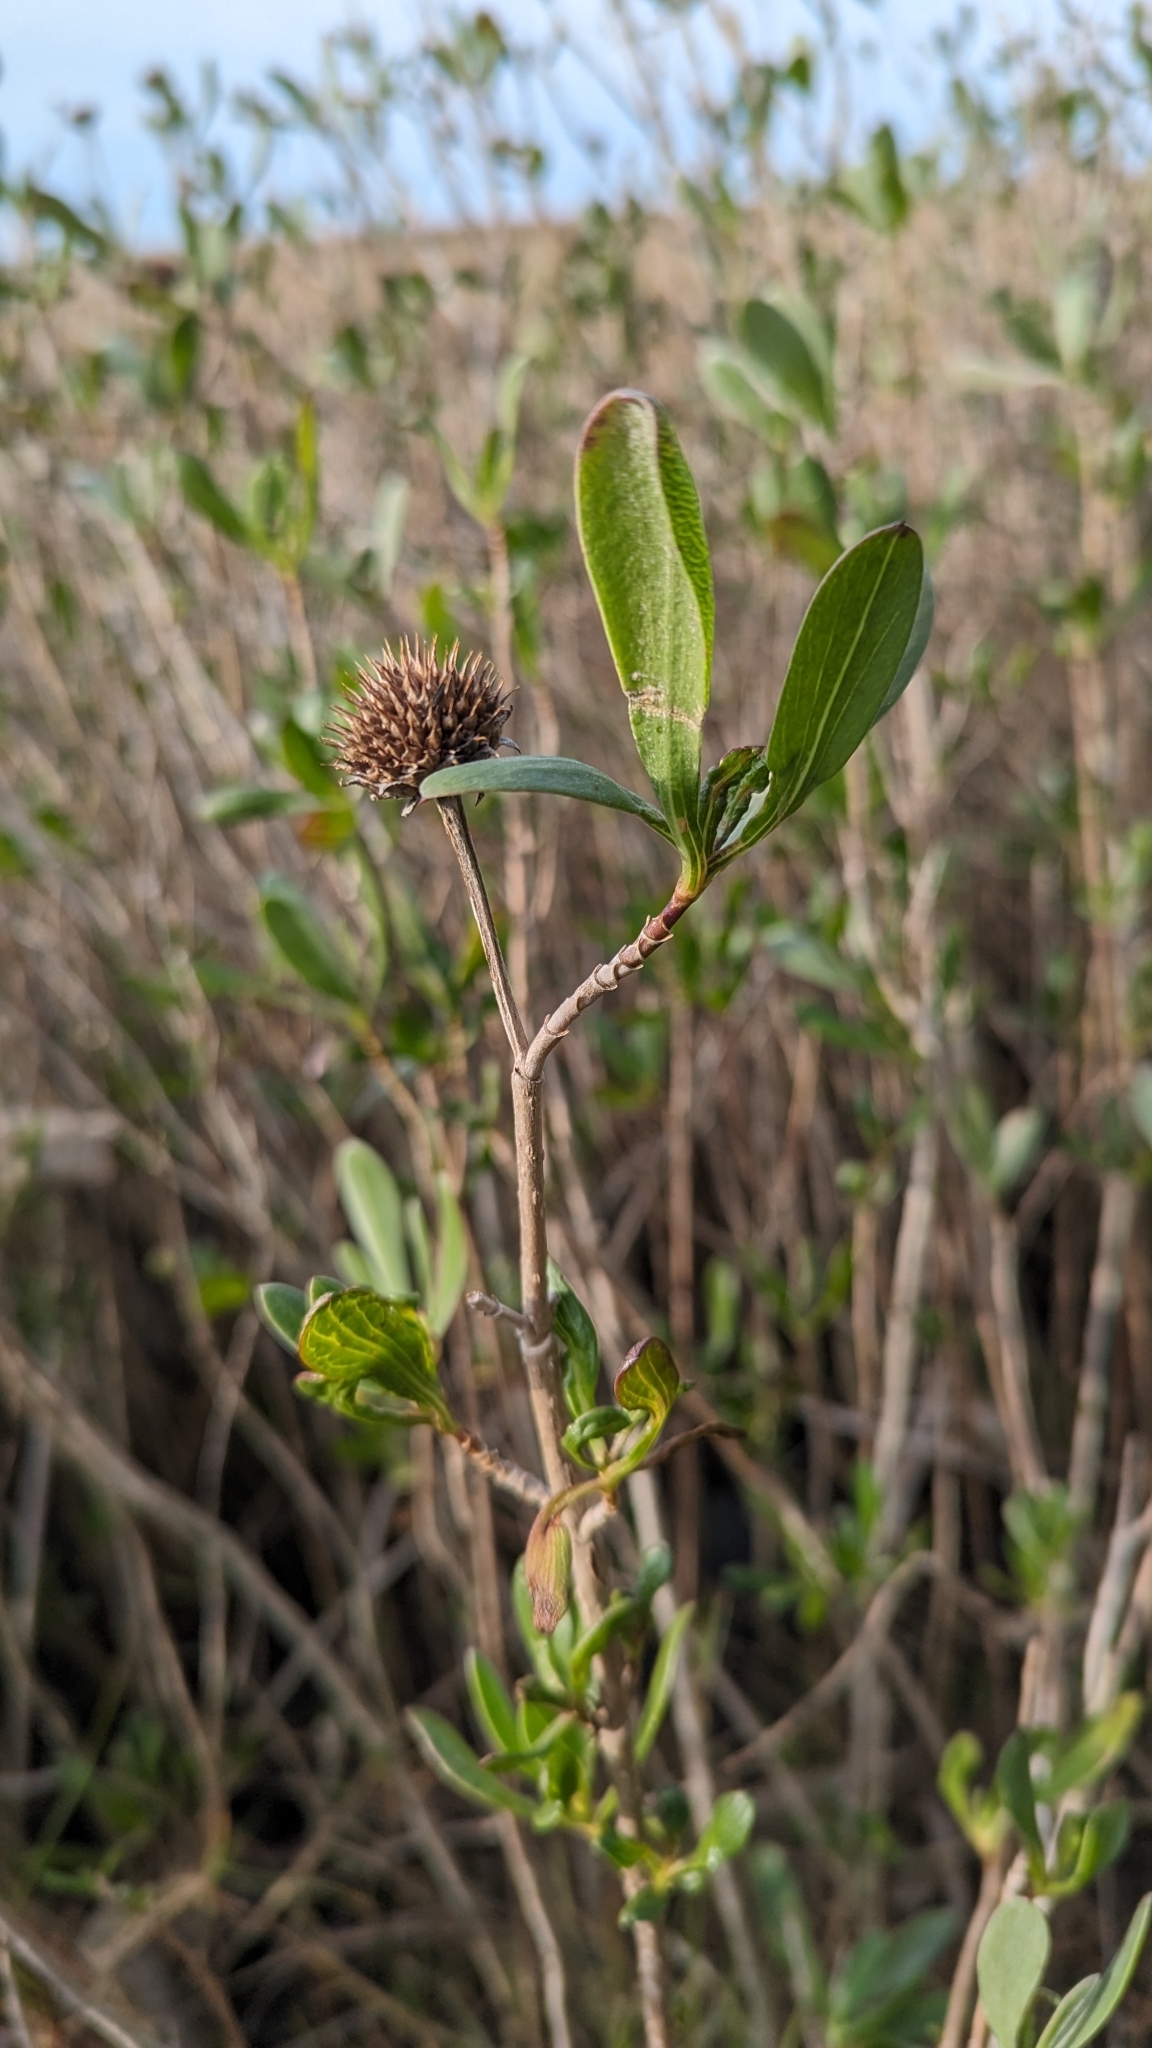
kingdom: Plantae
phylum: Tracheophyta
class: Magnoliopsida
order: Asterales
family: Asteraceae
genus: Borrichia
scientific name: Borrichia frutescens
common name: Sea oxeye
